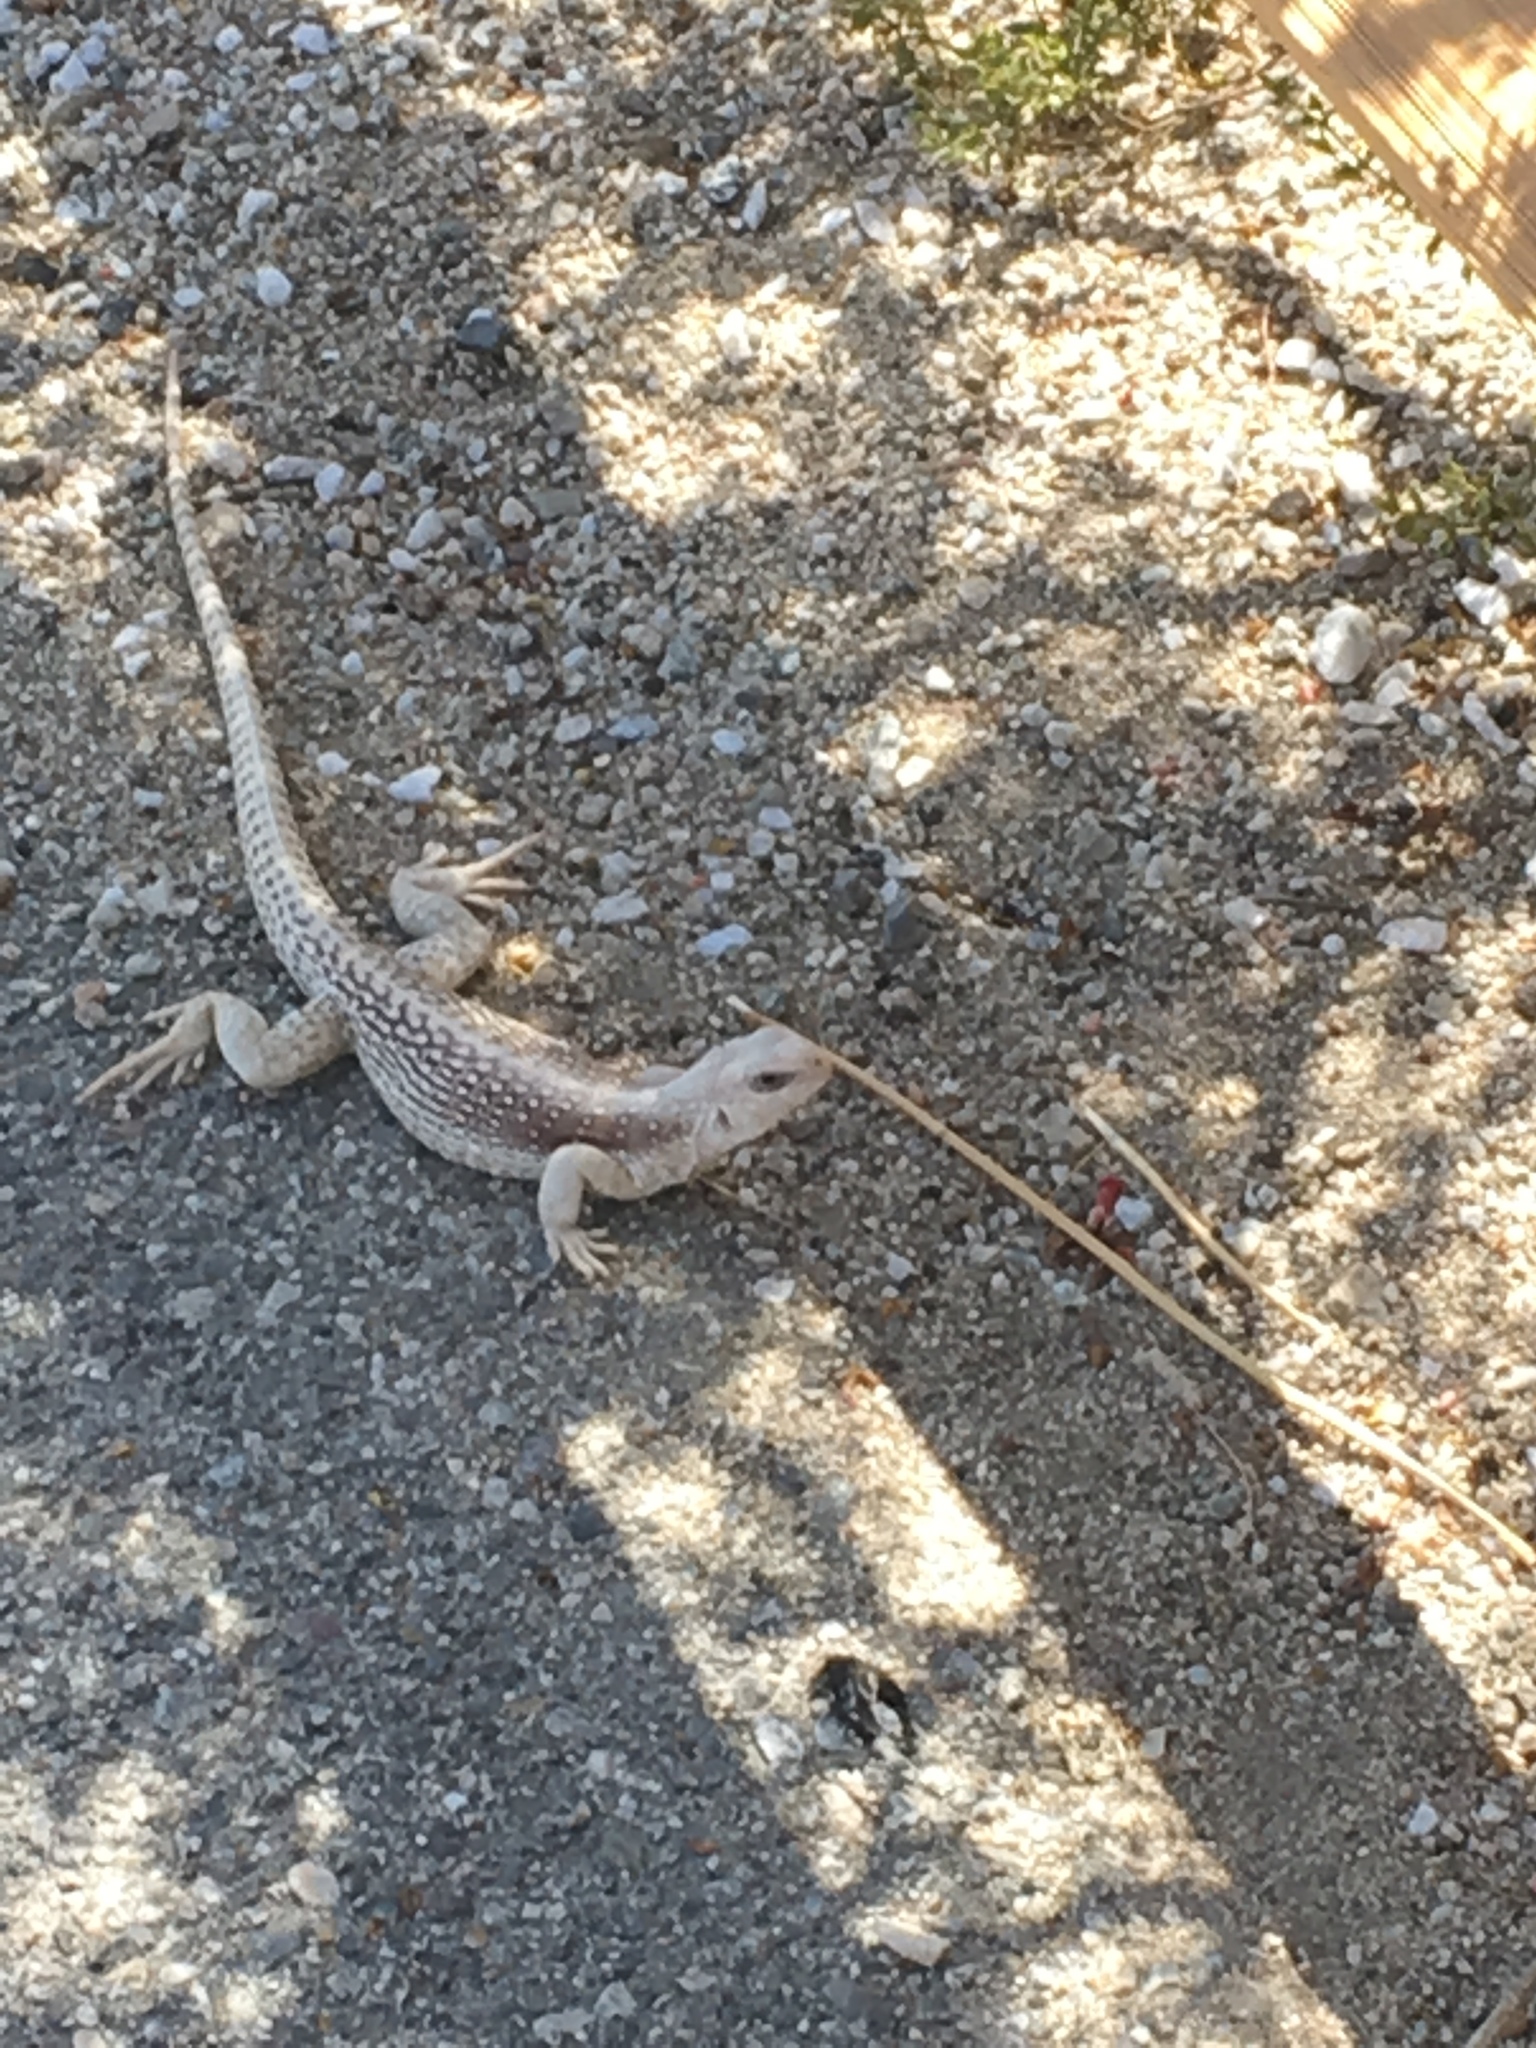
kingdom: Animalia
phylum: Chordata
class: Squamata
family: Iguanidae
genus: Dipsosaurus
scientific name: Dipsosaurus dorsalis
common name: Desert iguana
